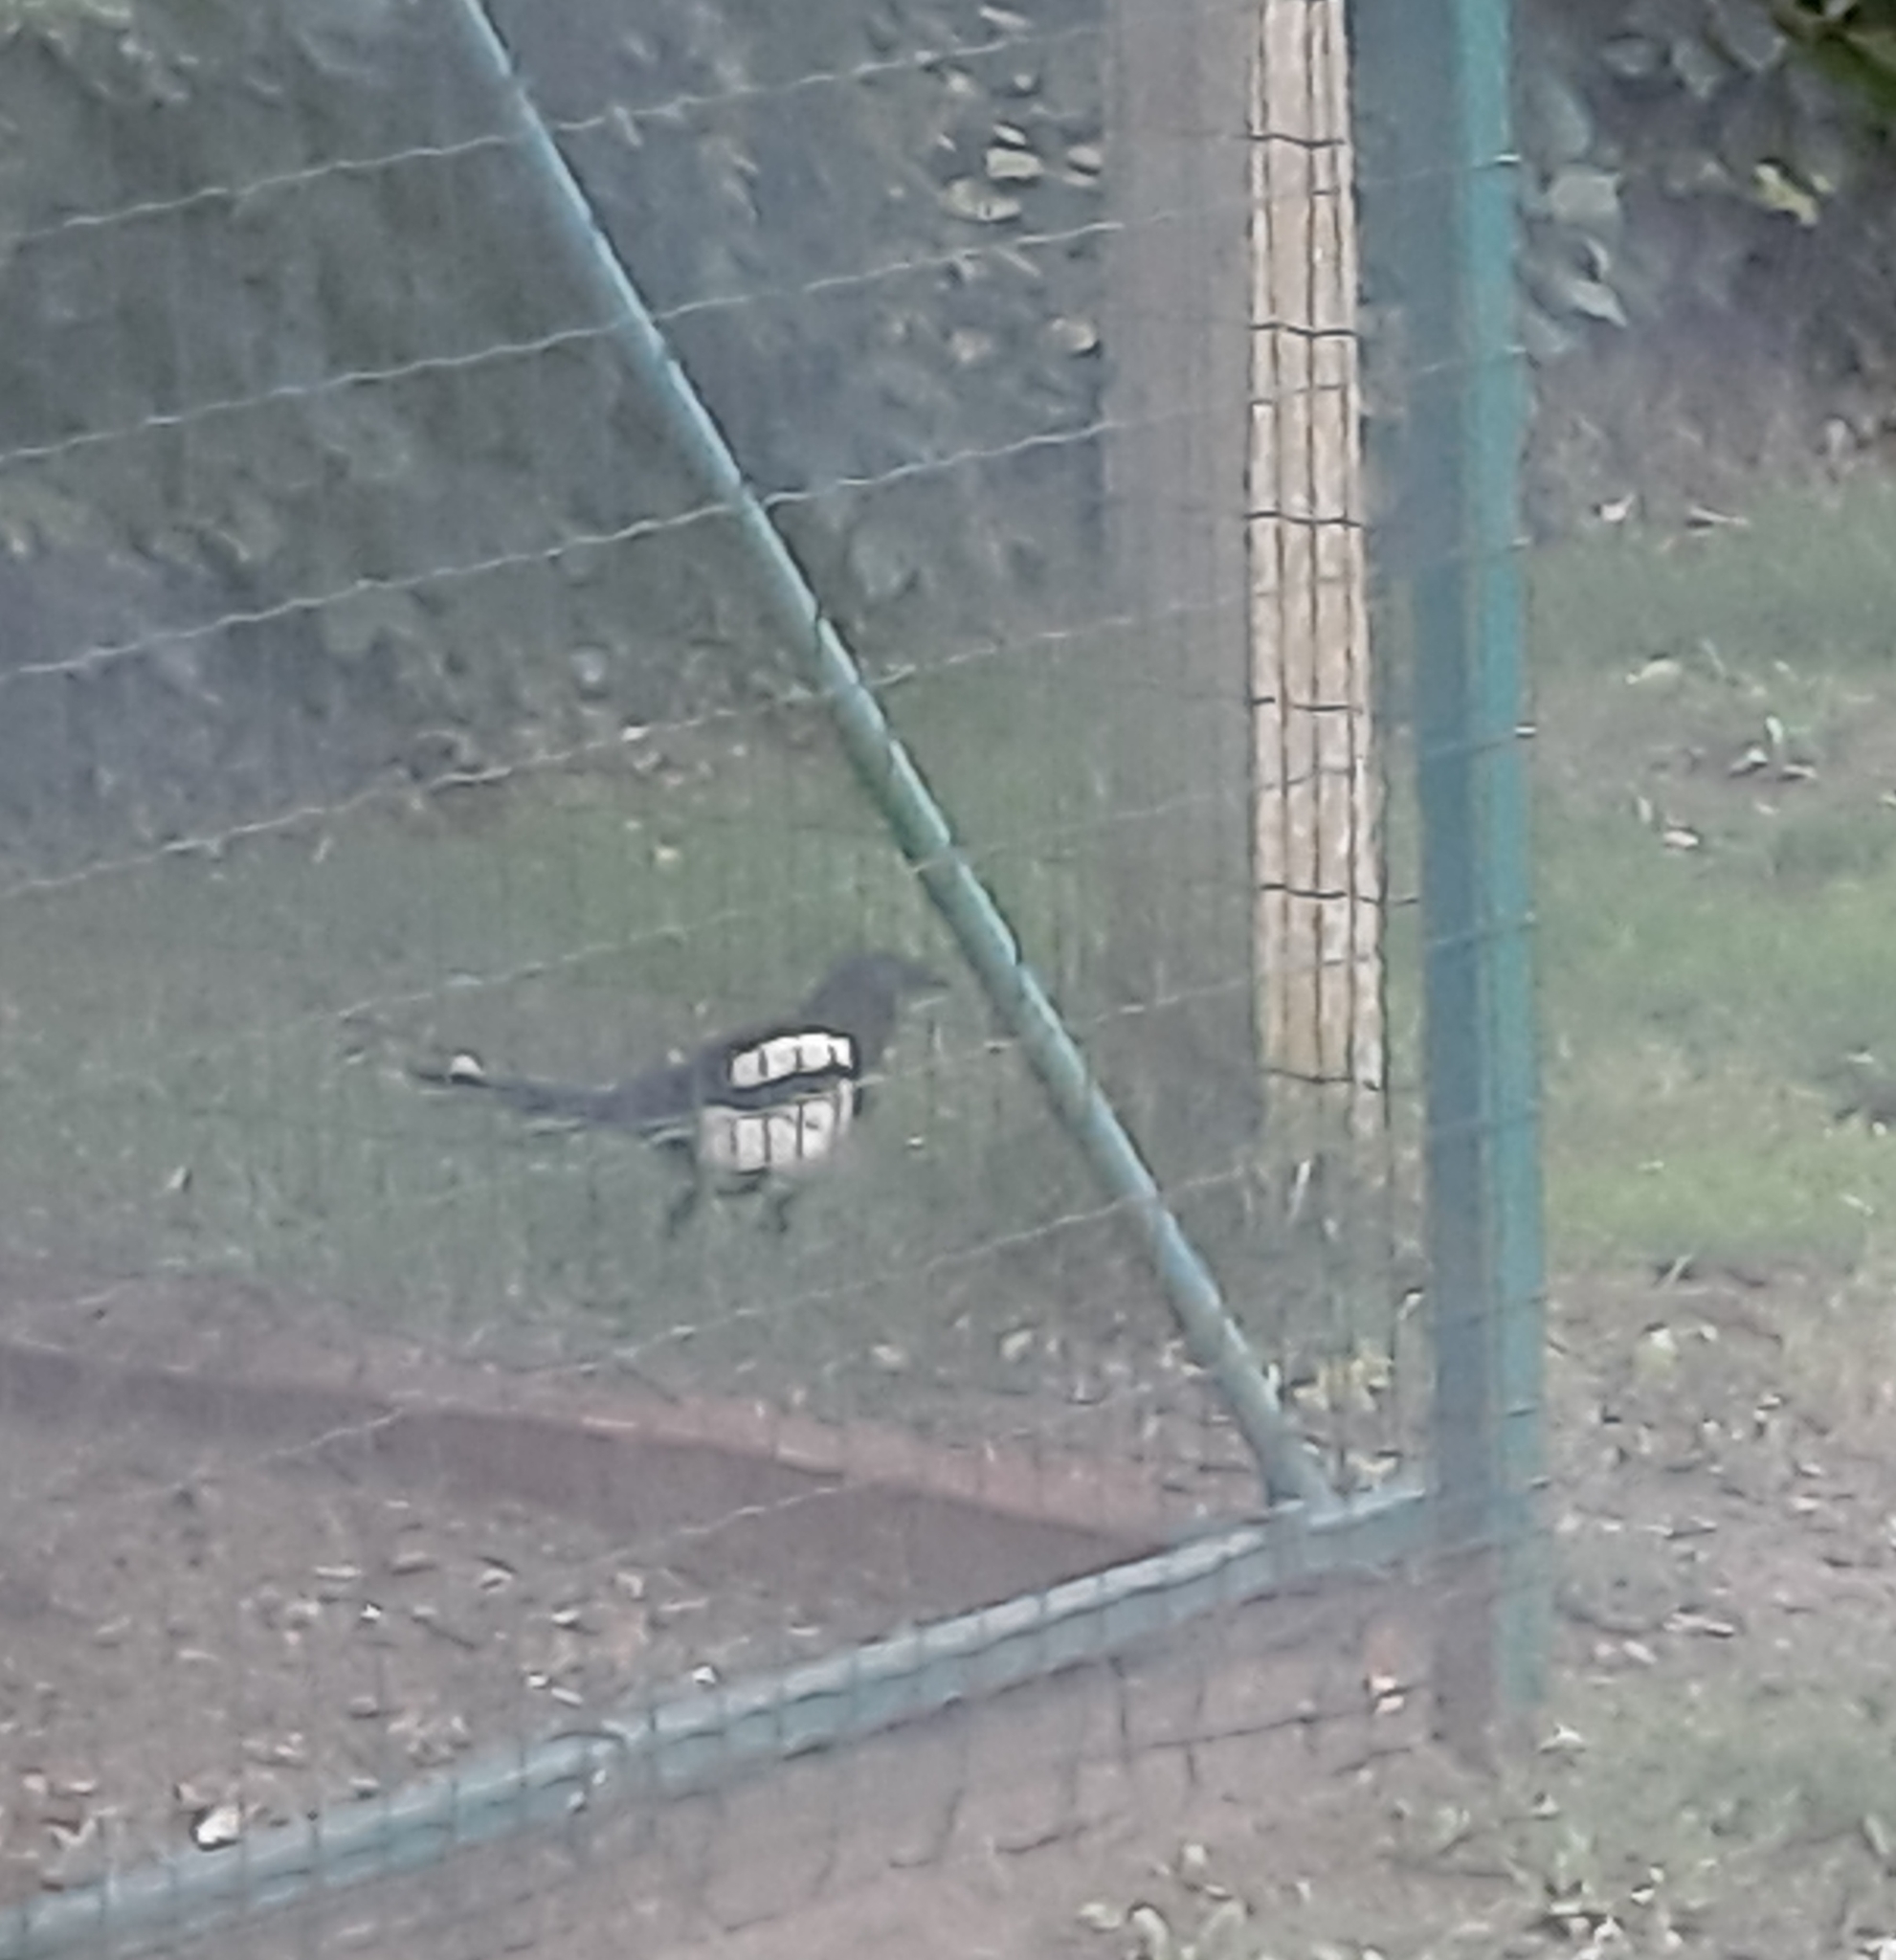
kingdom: Animalia
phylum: Chordata
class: Aves
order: Passeriformes
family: Corvidae
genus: Pica
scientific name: Pica pica
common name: Eurasian magpie
